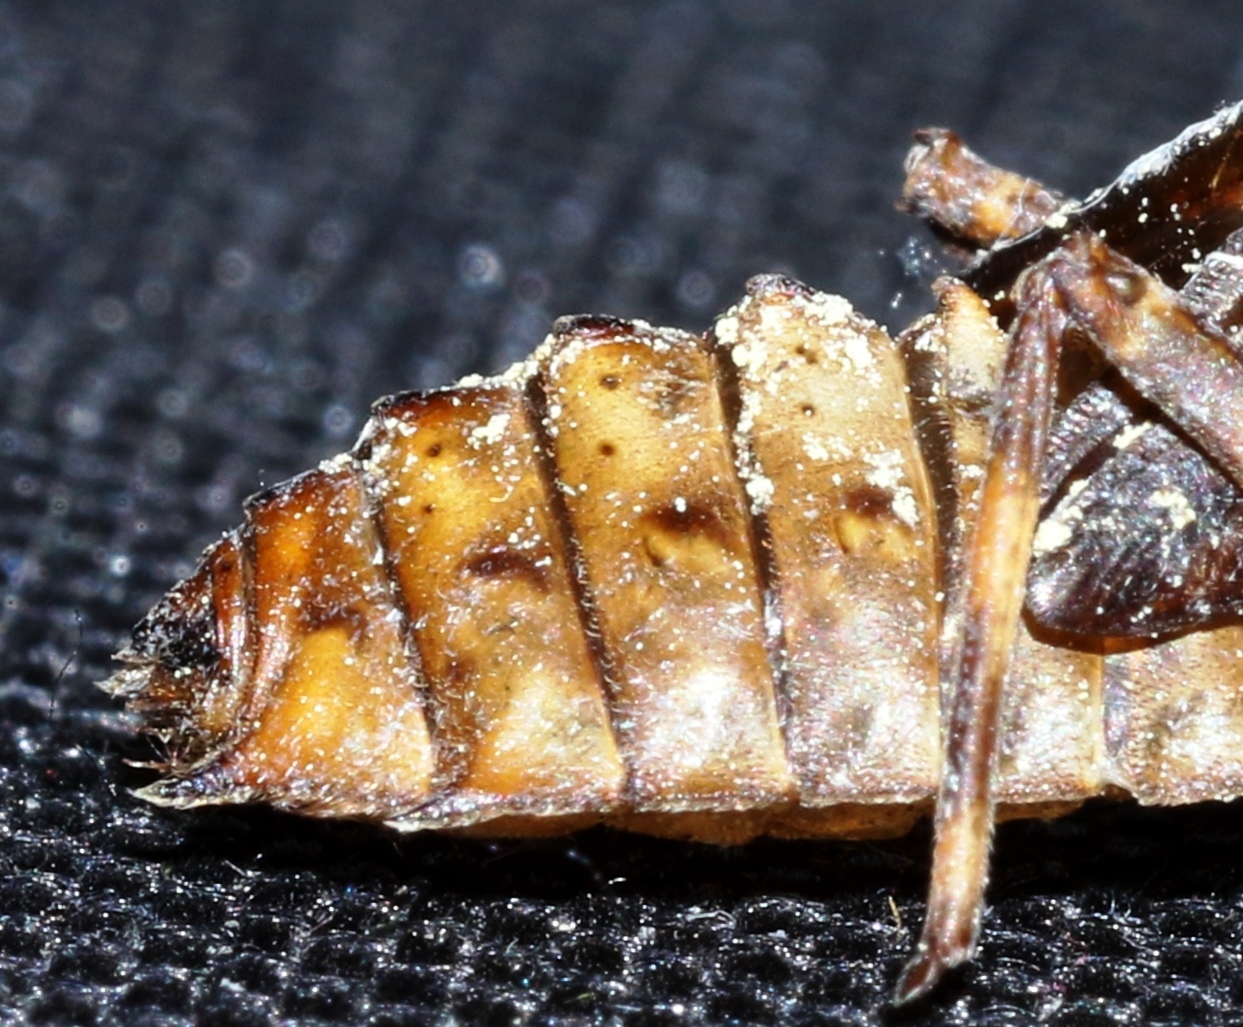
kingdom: Animalia
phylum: Arthropoda
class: Insecta
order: Odonata
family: Corduliidae
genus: Neurocordulia
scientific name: Neurocordulia yamaskanensis
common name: Stygian shadowdragon
